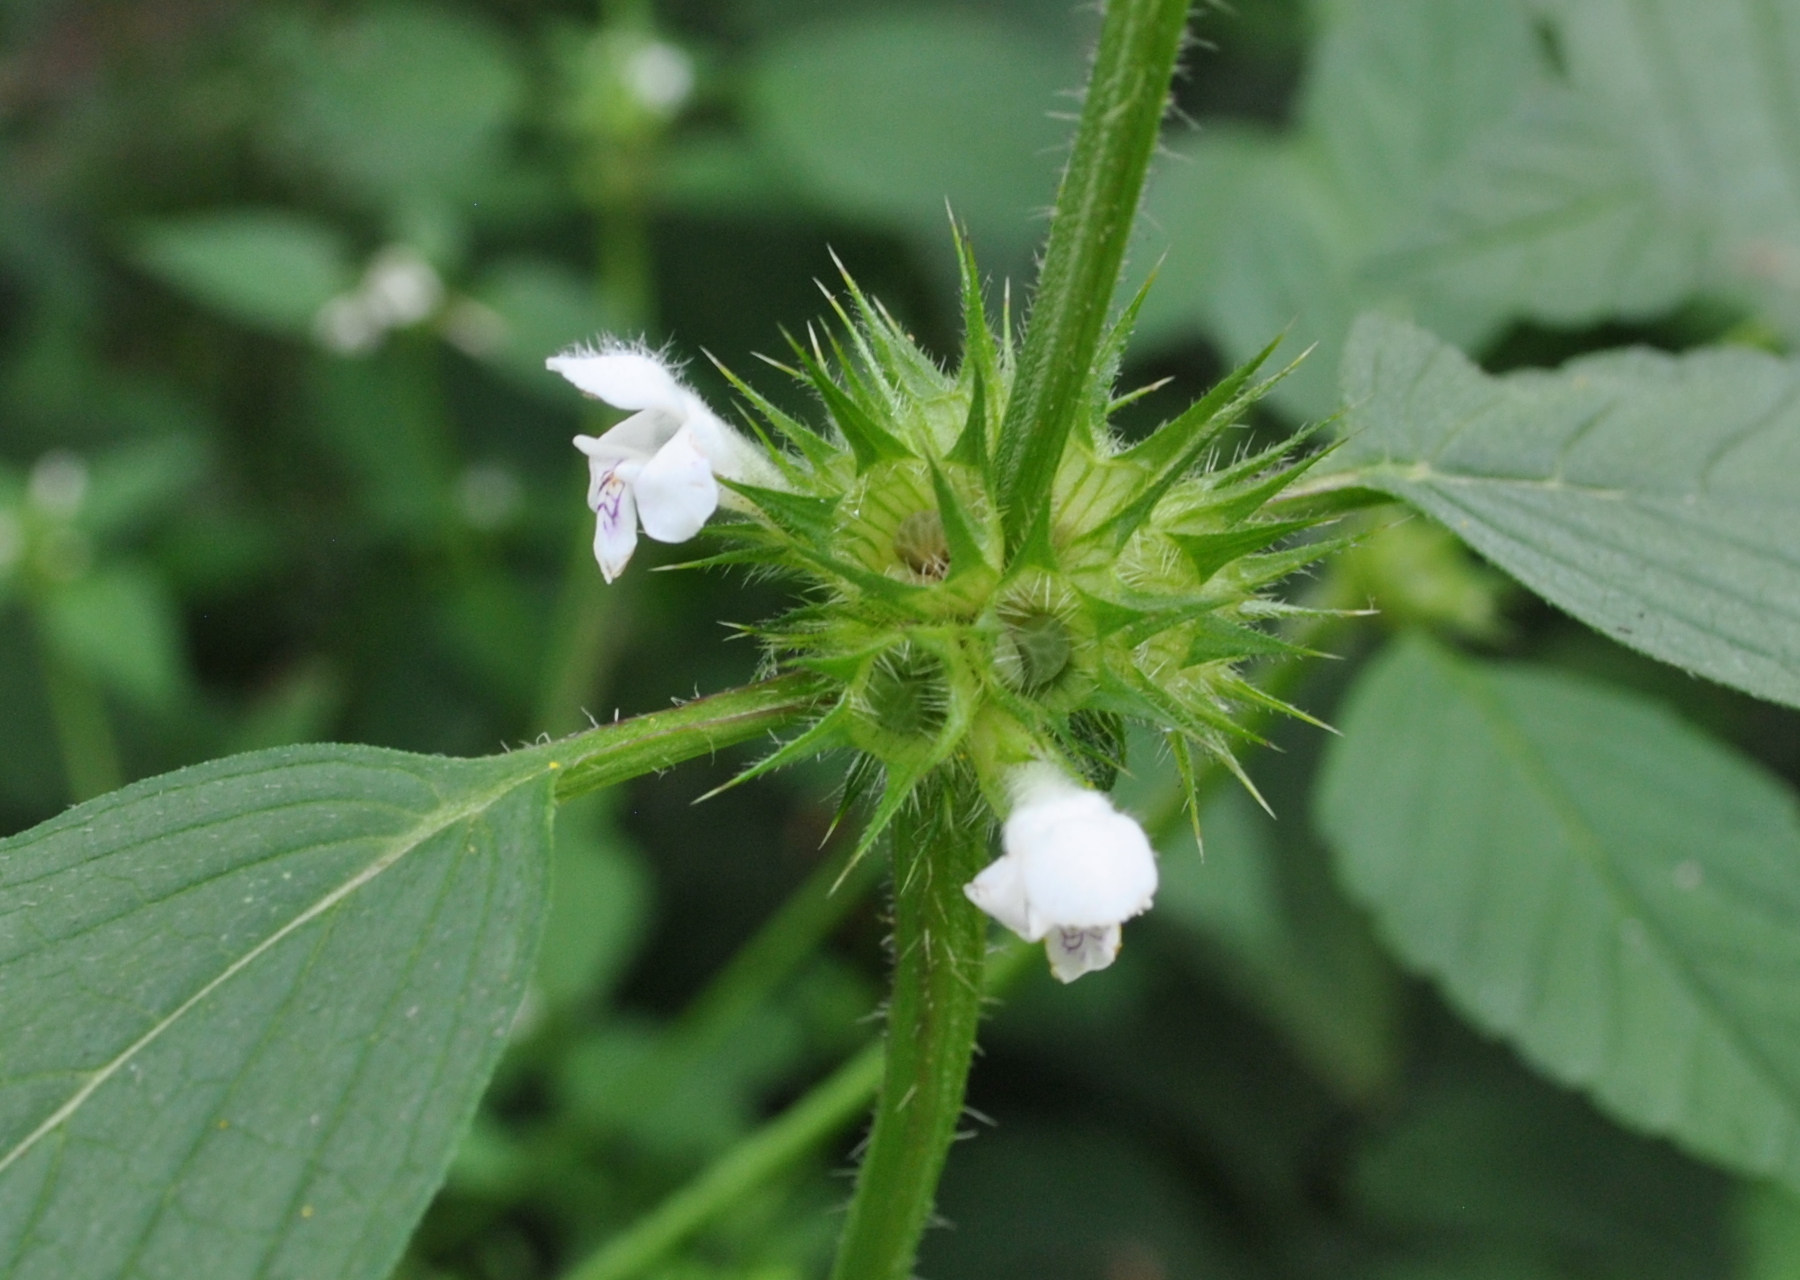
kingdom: Plantae
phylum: Tracheophyta
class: Magnoliopsida
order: Lamiales
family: Lamiaceae
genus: Galeopsis
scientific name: Galeopsis tetrahit
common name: Common hemp-nettle
